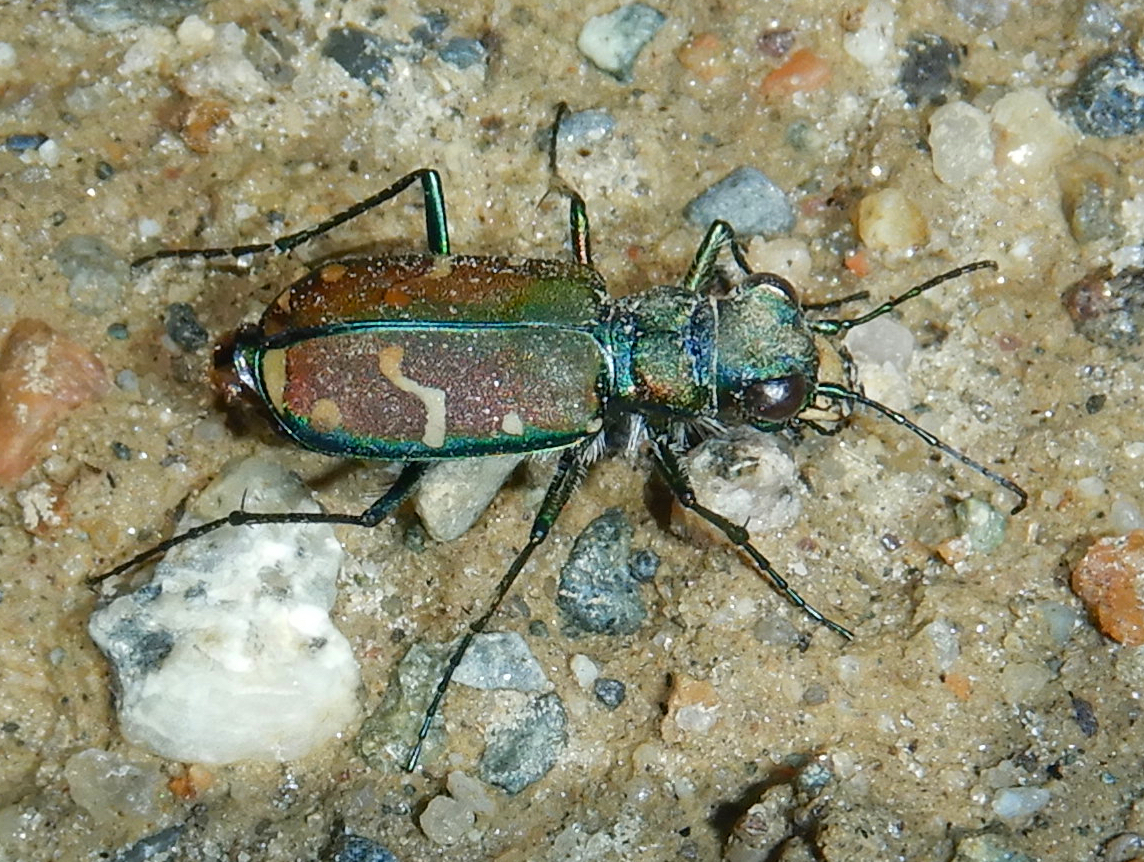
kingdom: Animalia
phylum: Arthropoda
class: Insecta
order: Coleoptera
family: Carabidae
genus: Cicindela
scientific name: Cicindela limbalis
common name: Common claybank tiger beetle
